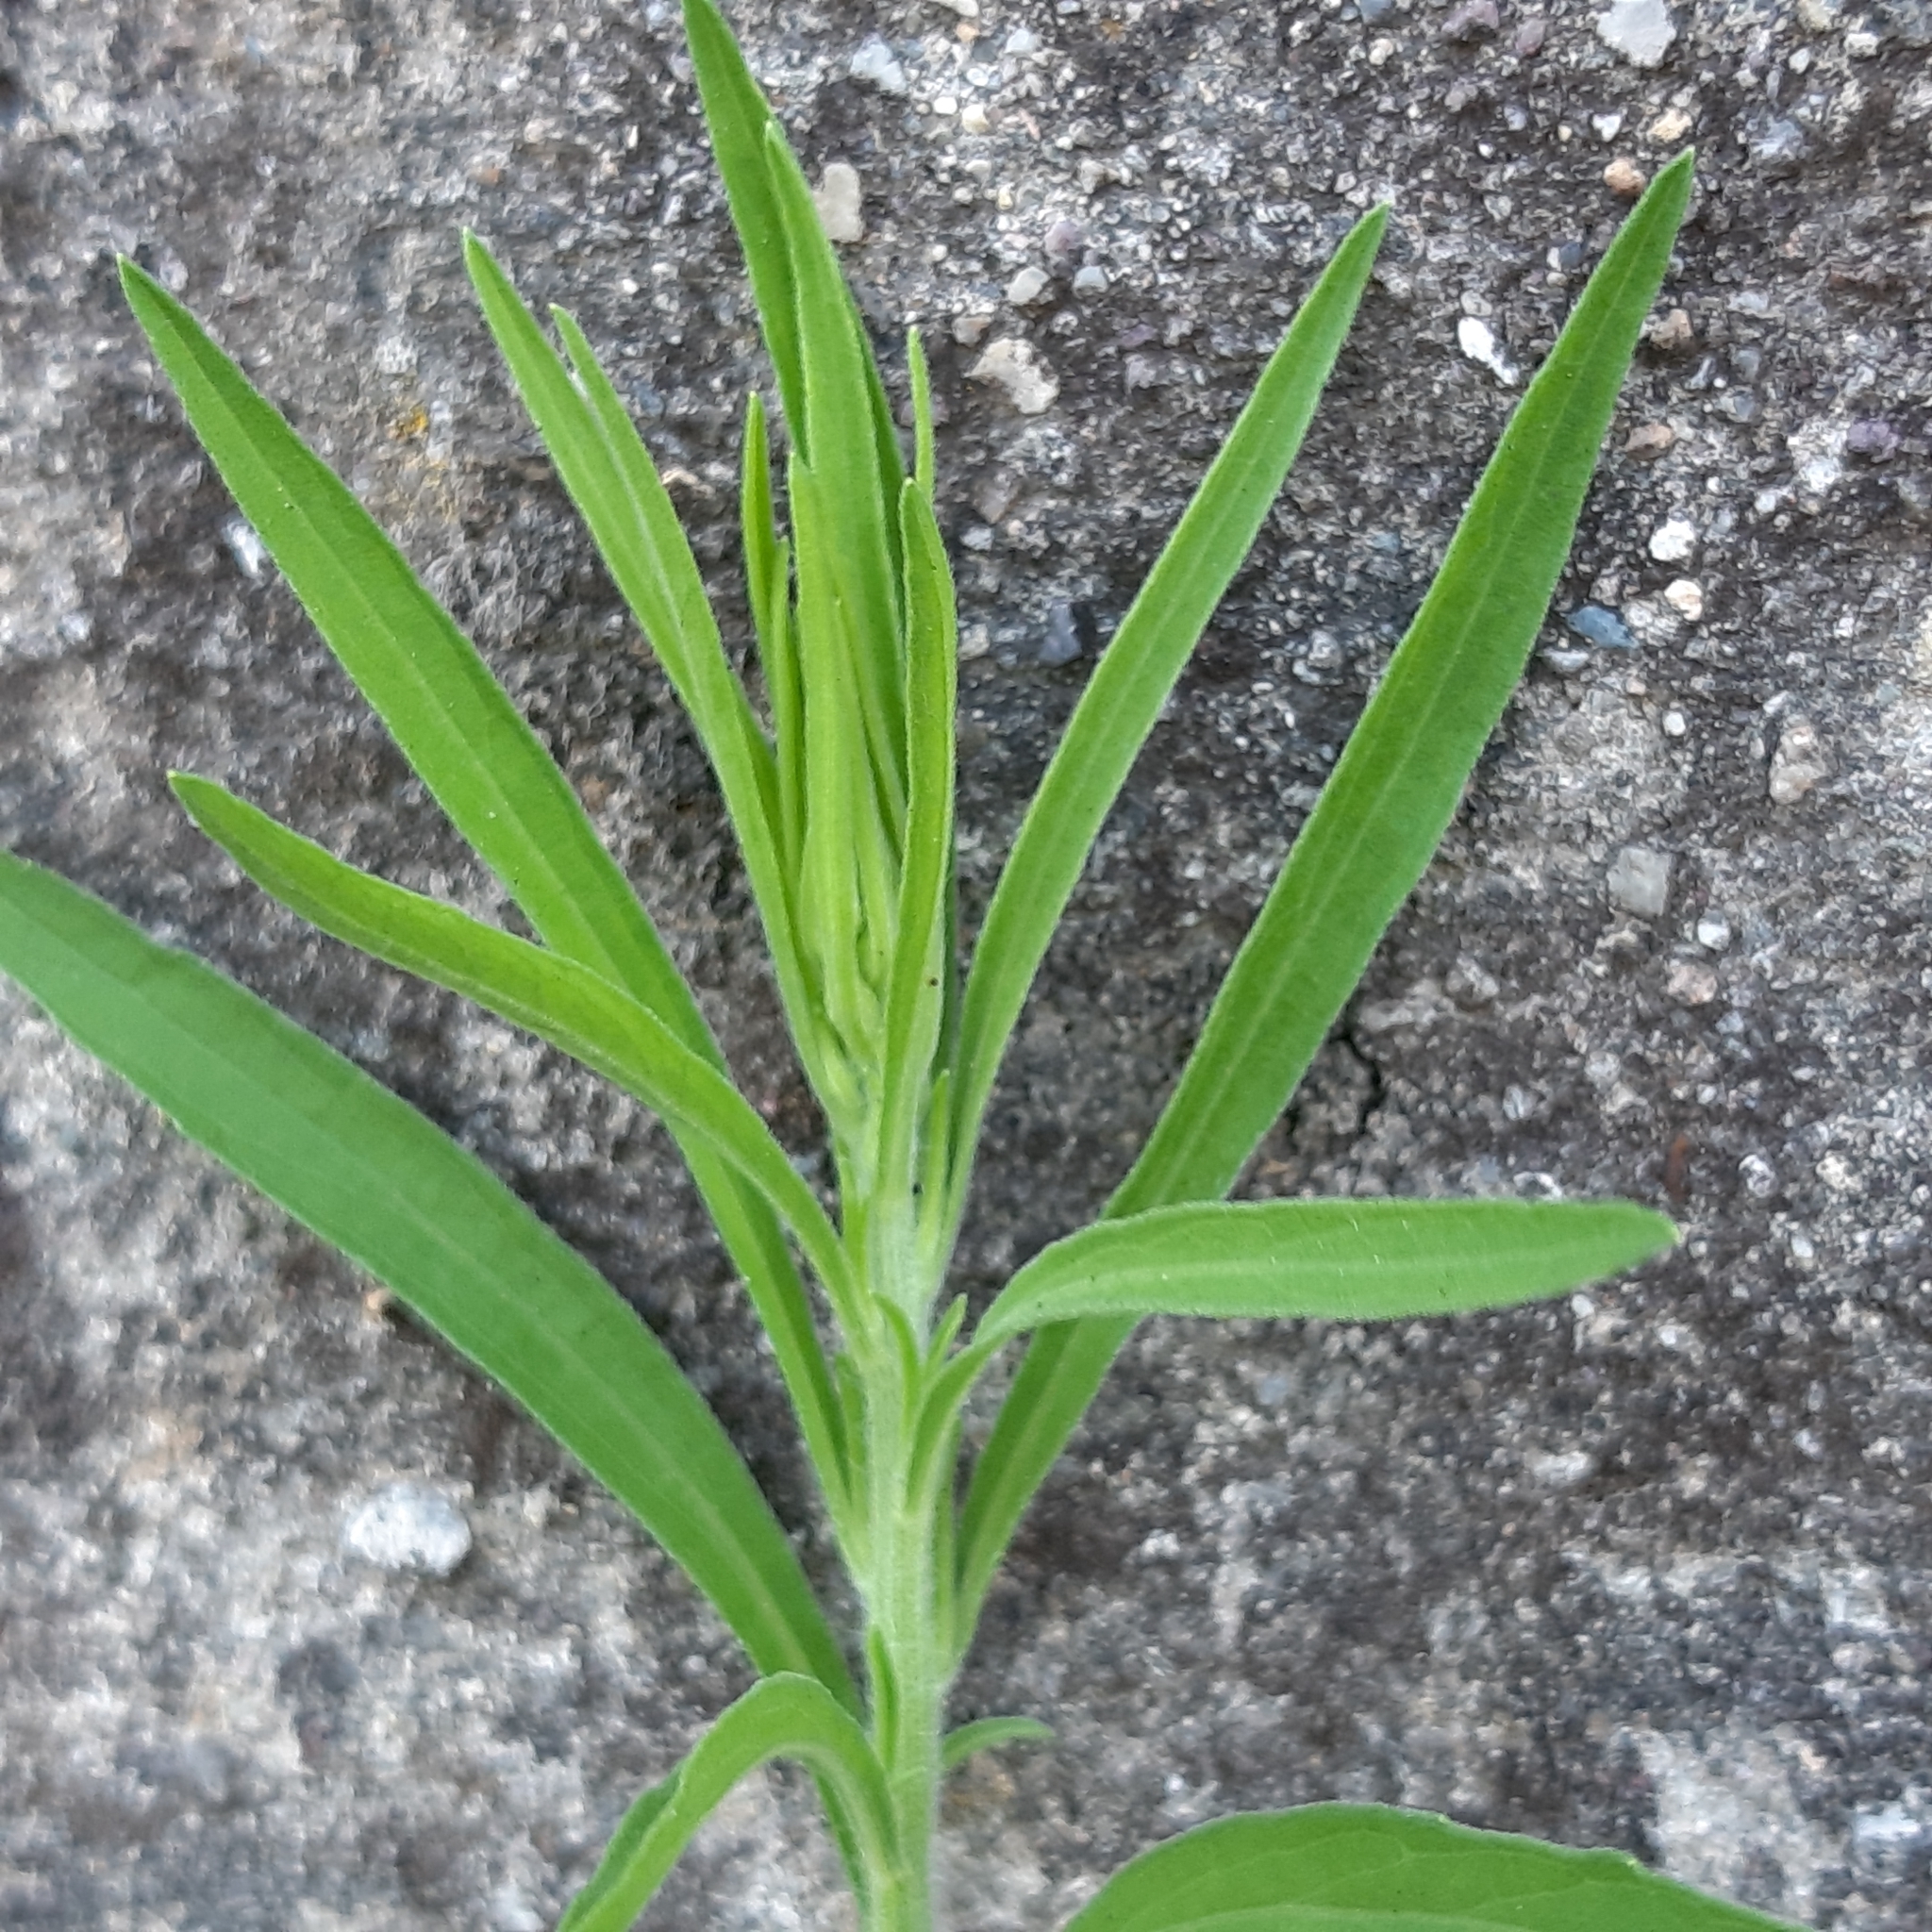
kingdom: Plantae
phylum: Tracheophyta
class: Magnoliopsida
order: Asterales
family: Asteraceae
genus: Erigeron
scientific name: Erigeron sumatrensis
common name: Daisy
